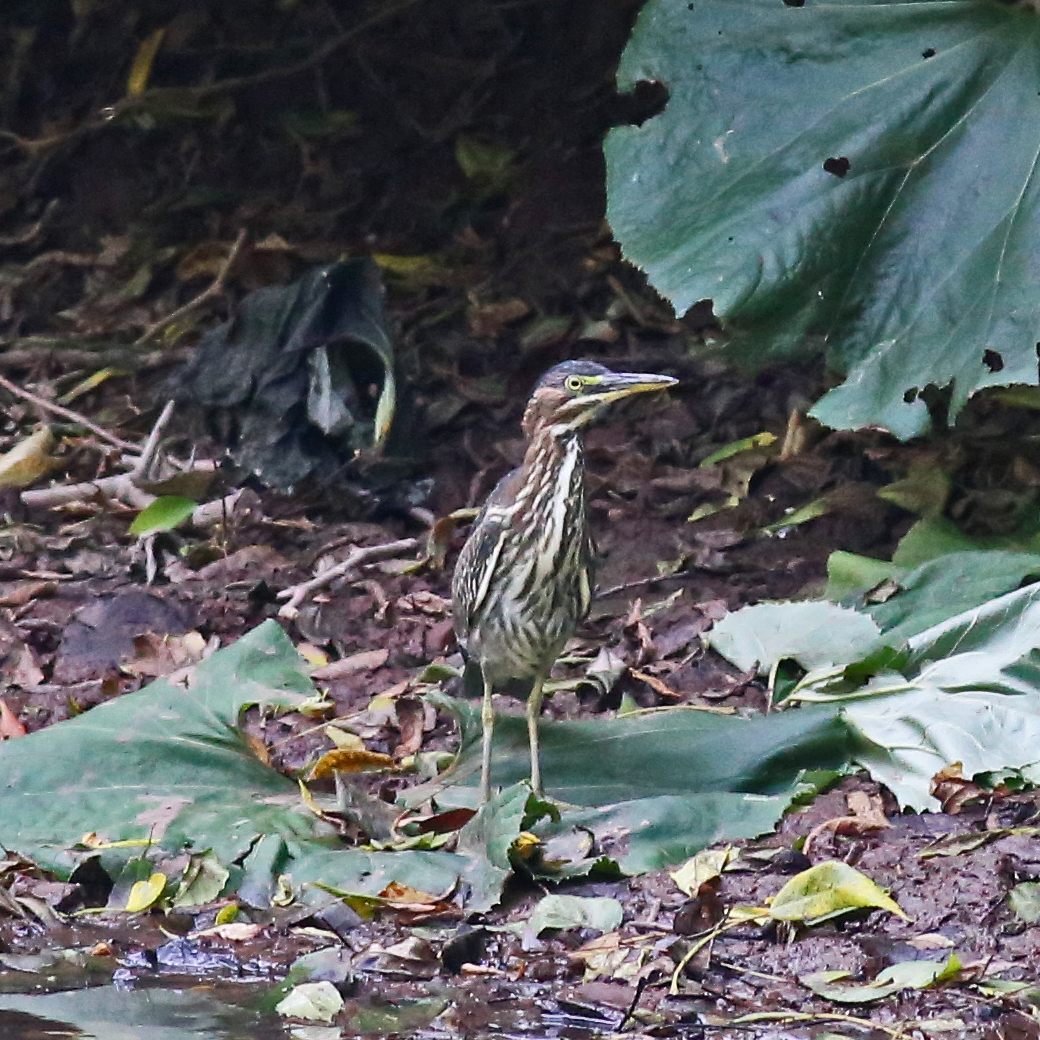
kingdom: Animalia
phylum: Chordata
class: Aves
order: Pelecaniformes
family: Ardeidae
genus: Butorides
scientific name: Butorides virescens
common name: Green heron
